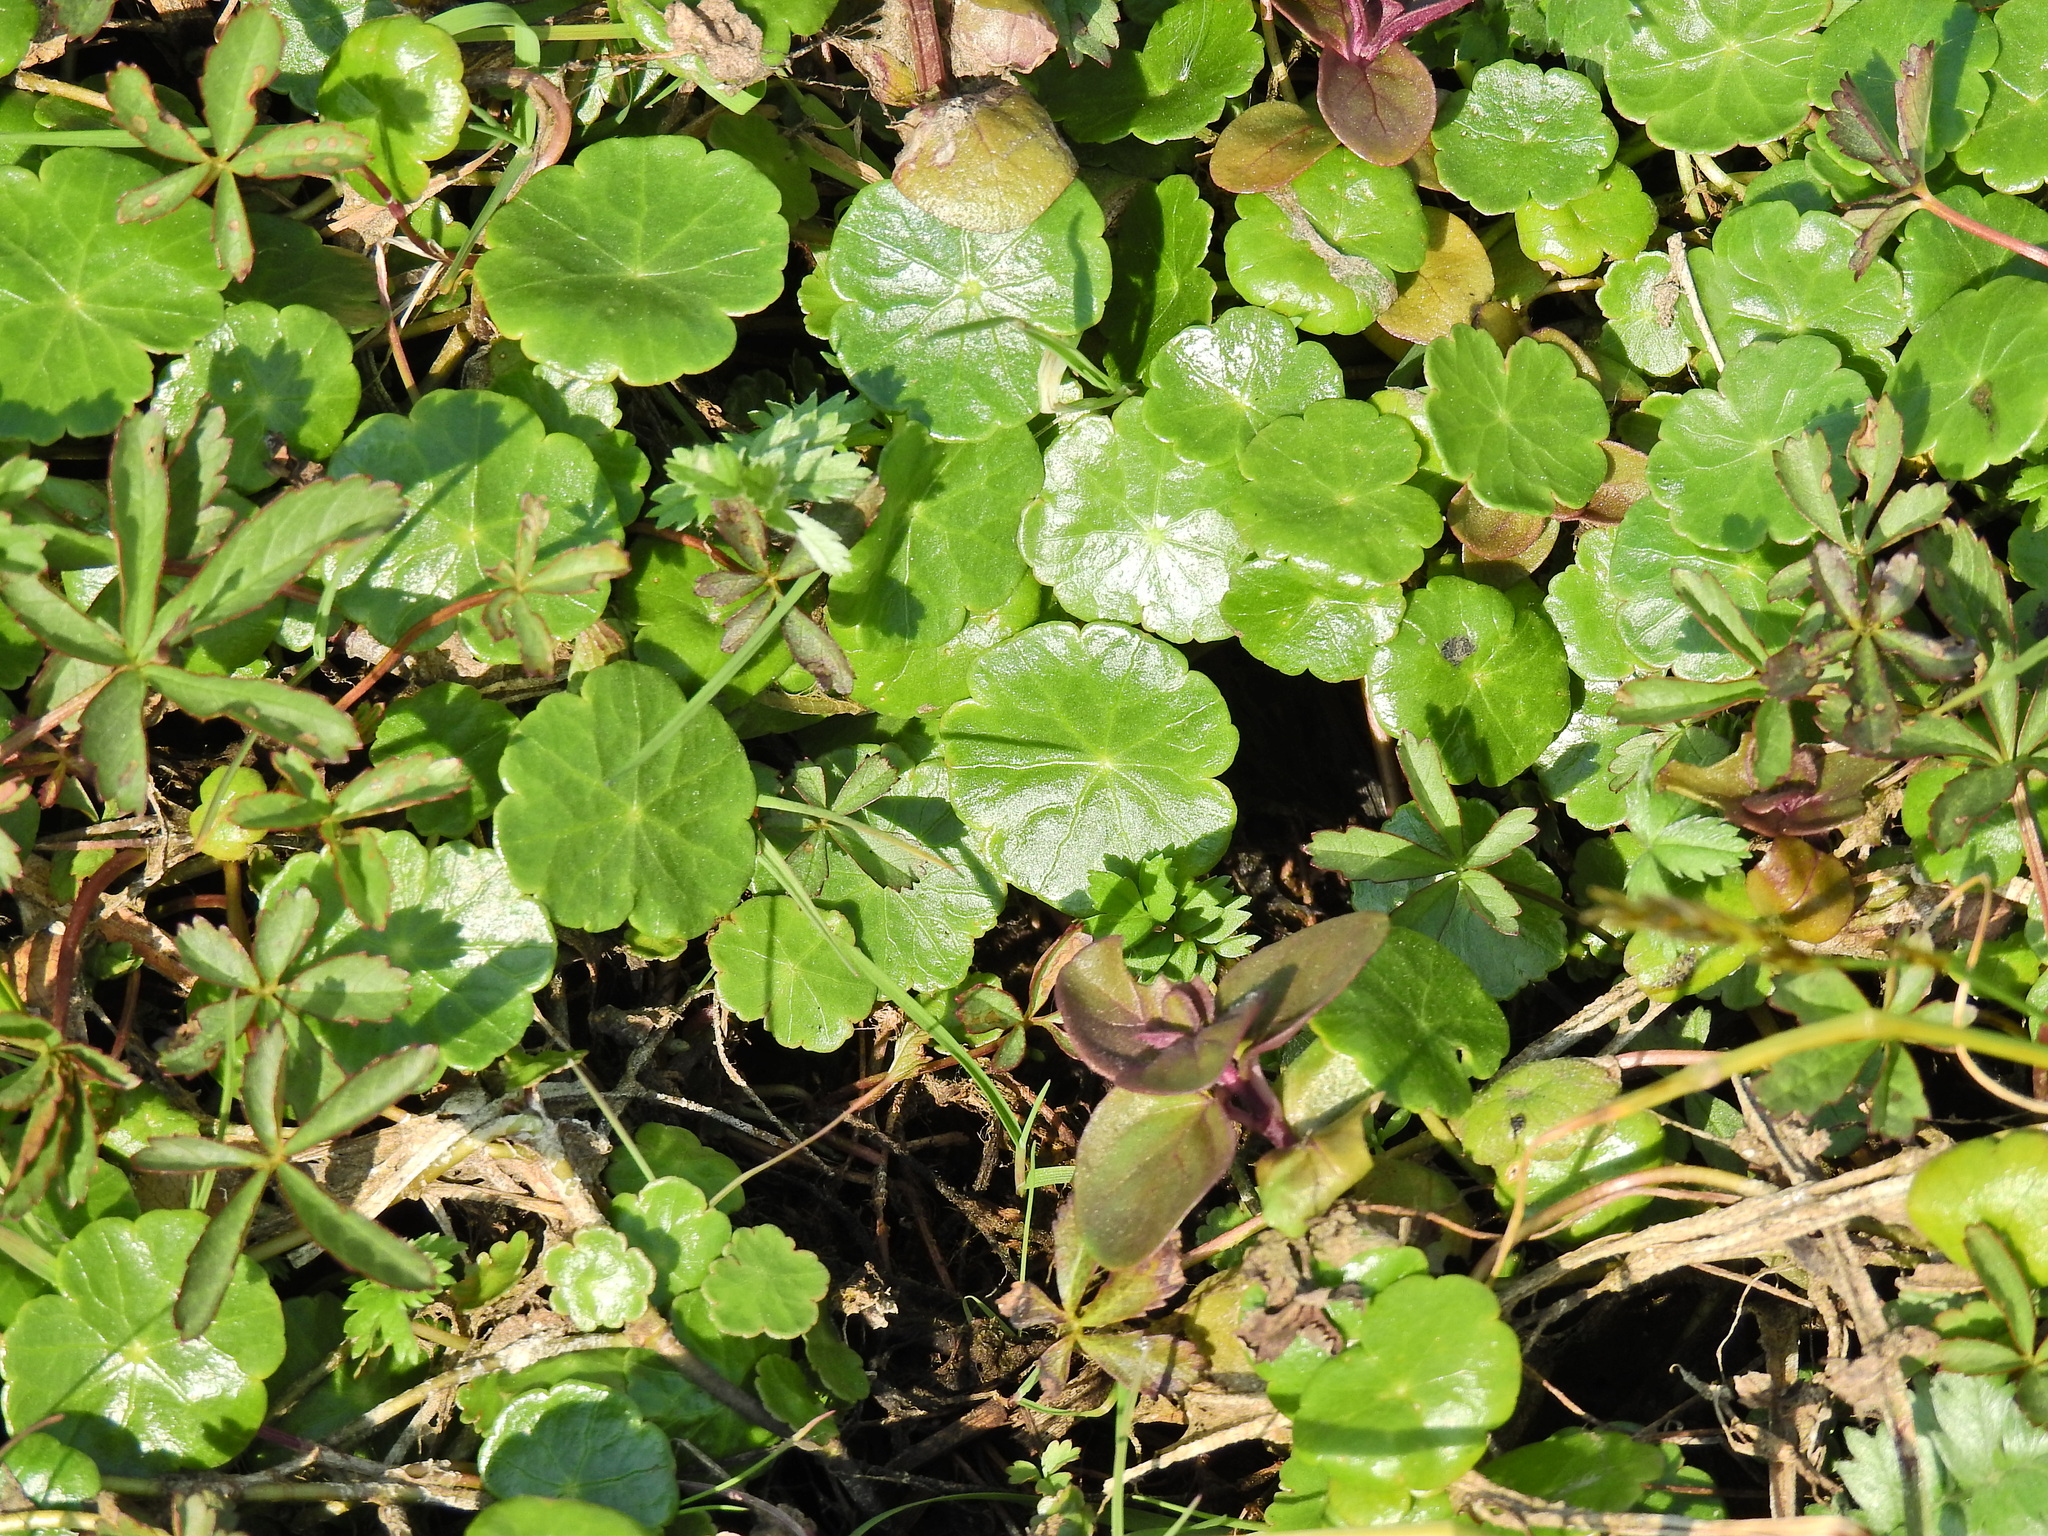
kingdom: Plantae
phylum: Tracheophyta
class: Magnoliopsida
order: Apiales
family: Araliaceae
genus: Hydrocotyle
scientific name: Hydrocotyle vulgaris
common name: Marsh pennywort
